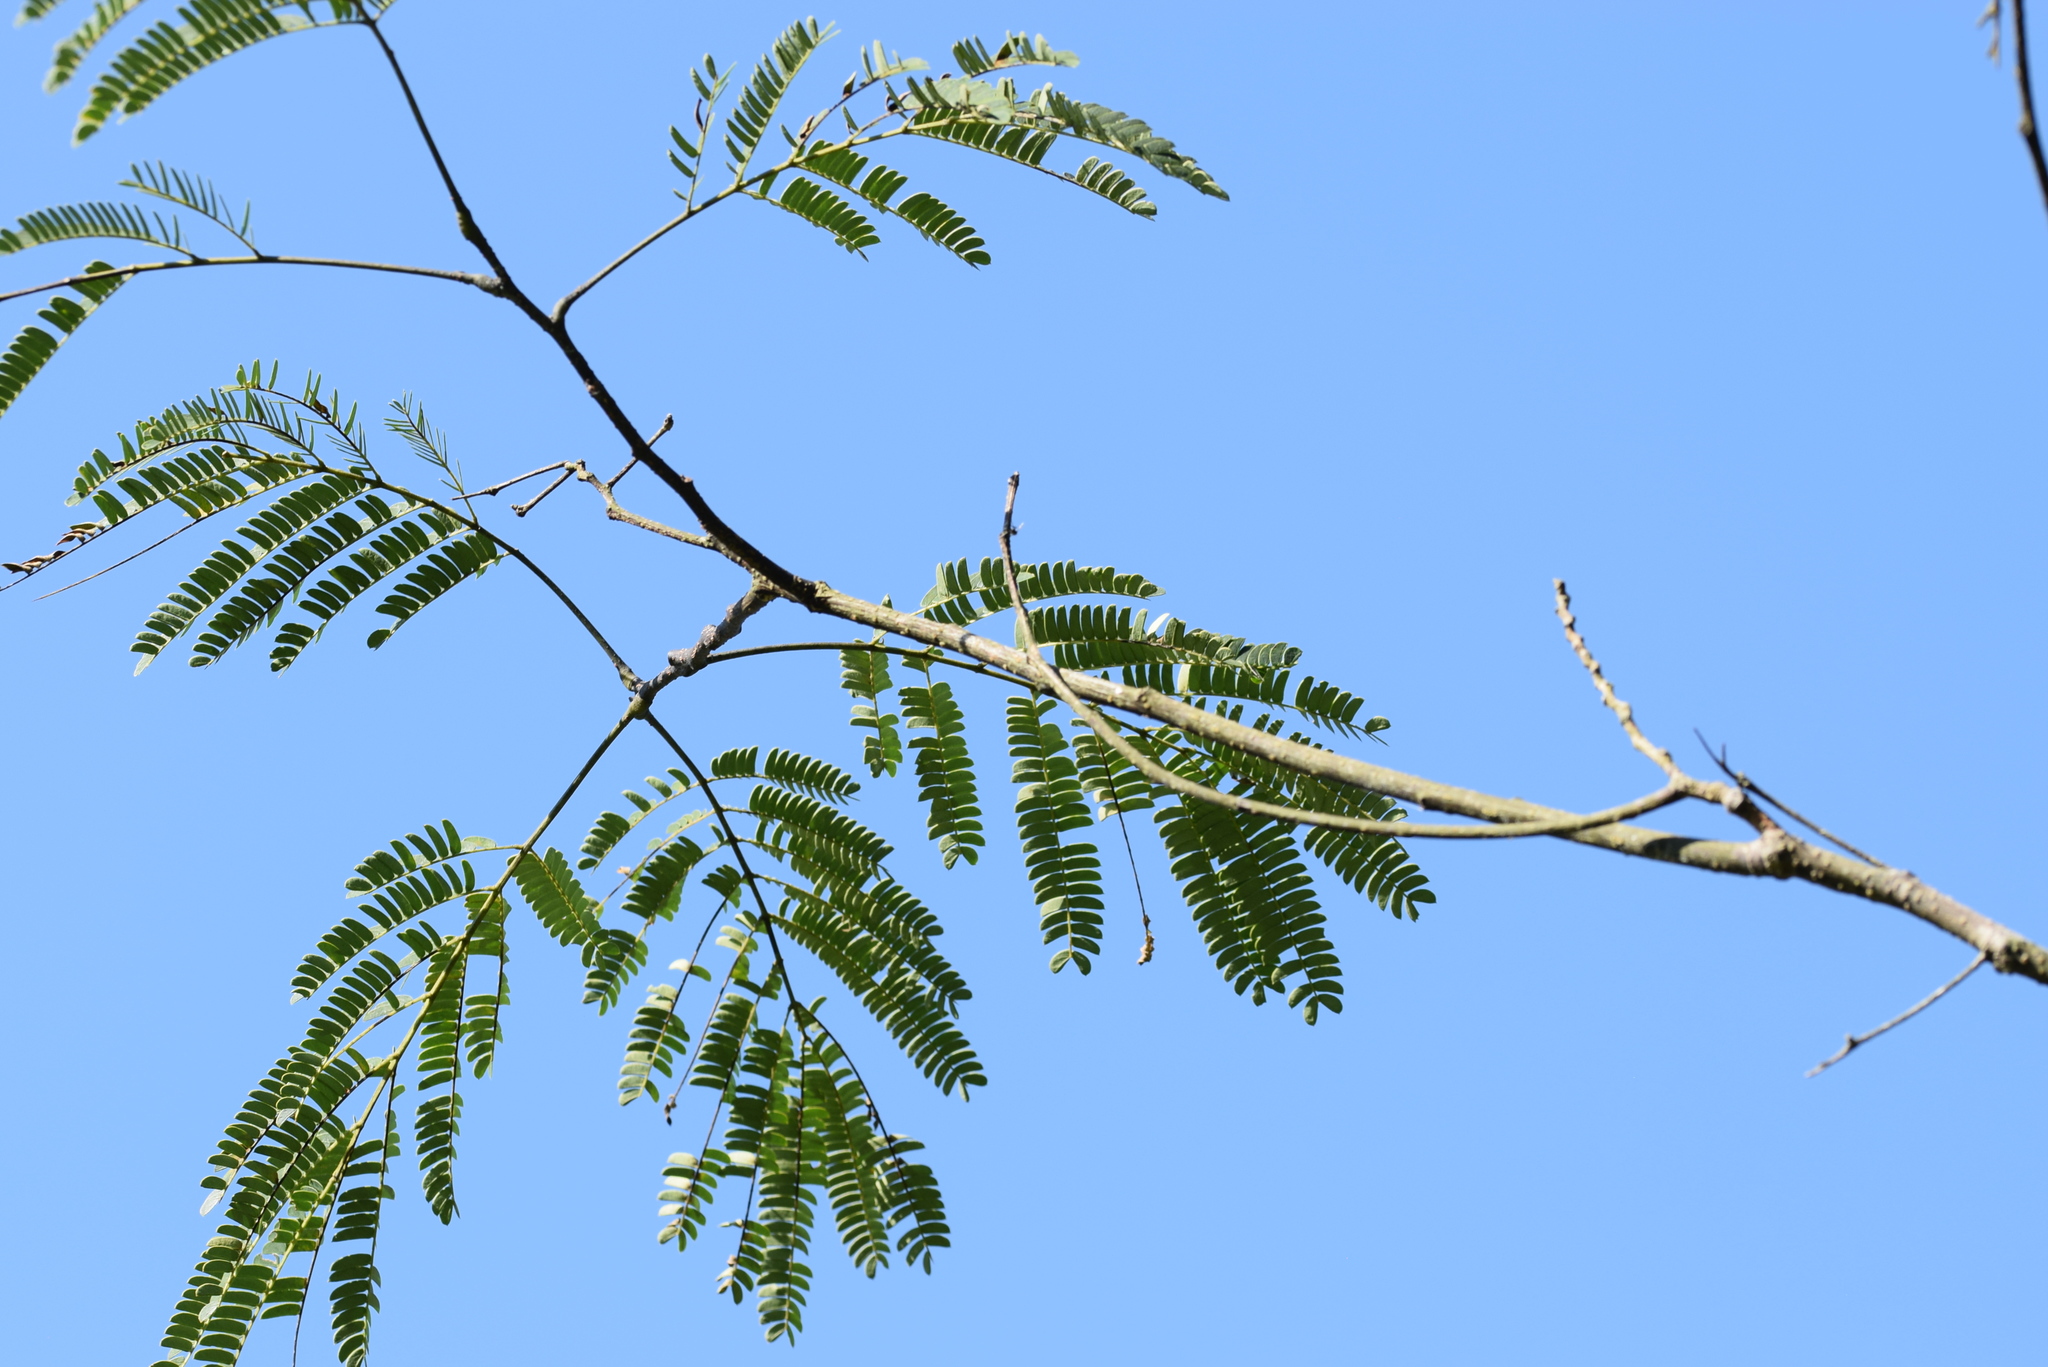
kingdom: Plantae
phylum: Tracheophyta
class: Magnoliopsida
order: Fabales
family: Fabaceae
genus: Albizia
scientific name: Albizia julibrissin
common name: Silktree
